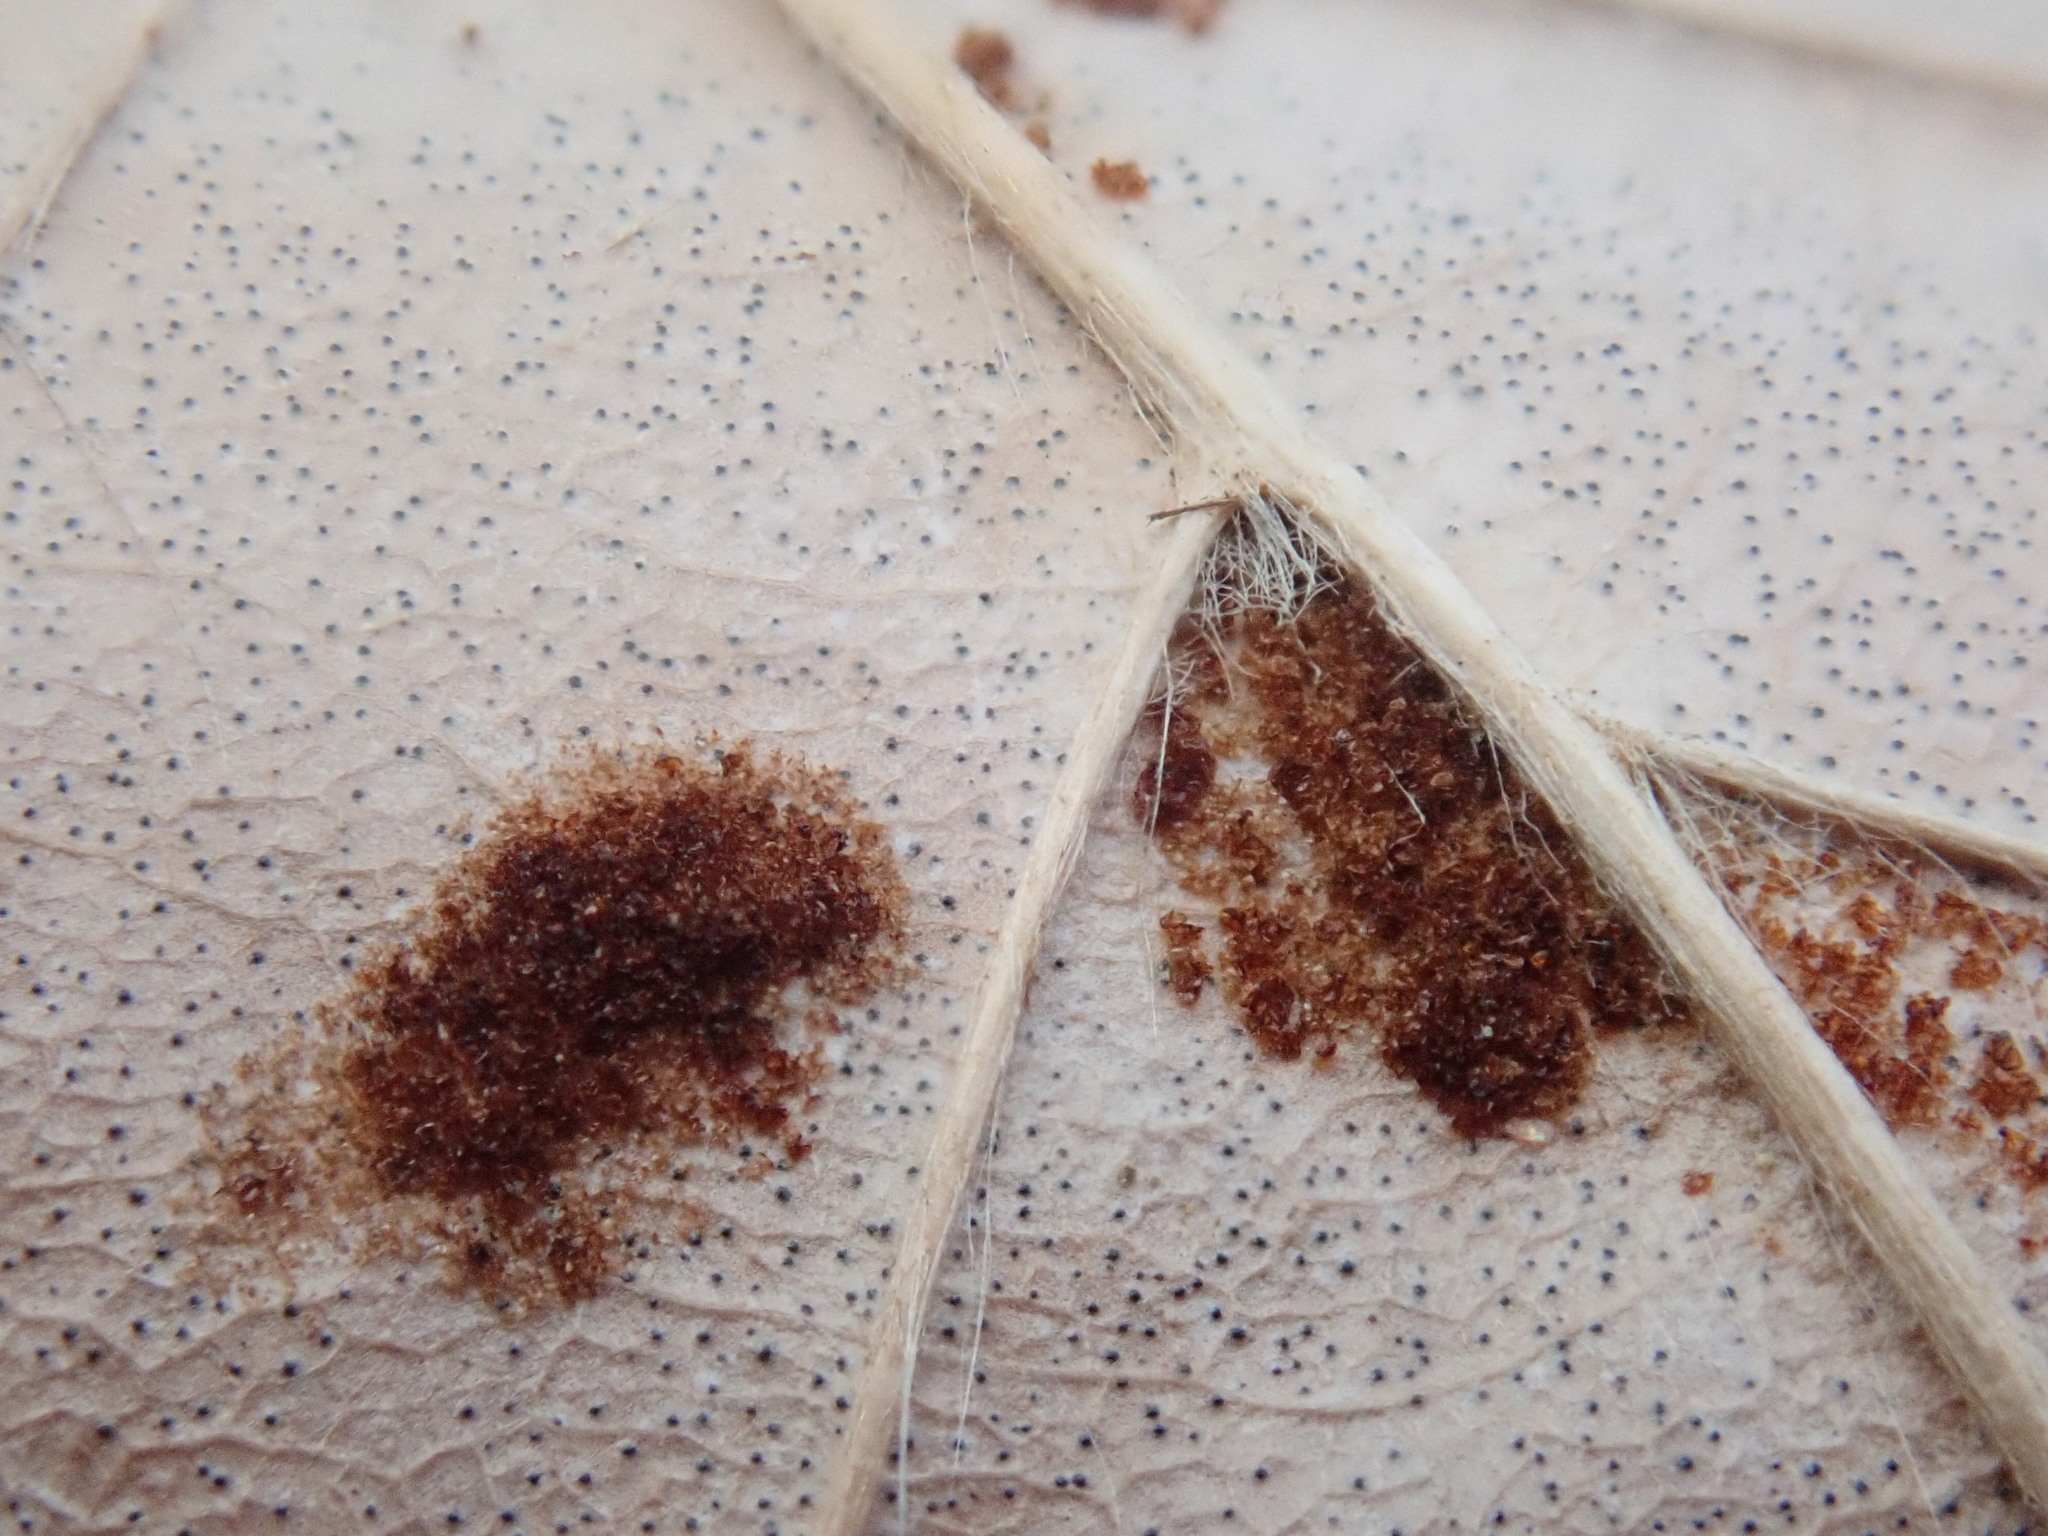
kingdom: Animalia
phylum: Arthropoda
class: Arachnida
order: Trombidiformes
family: Eriophyidae
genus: Acalitus
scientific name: Acalitus
